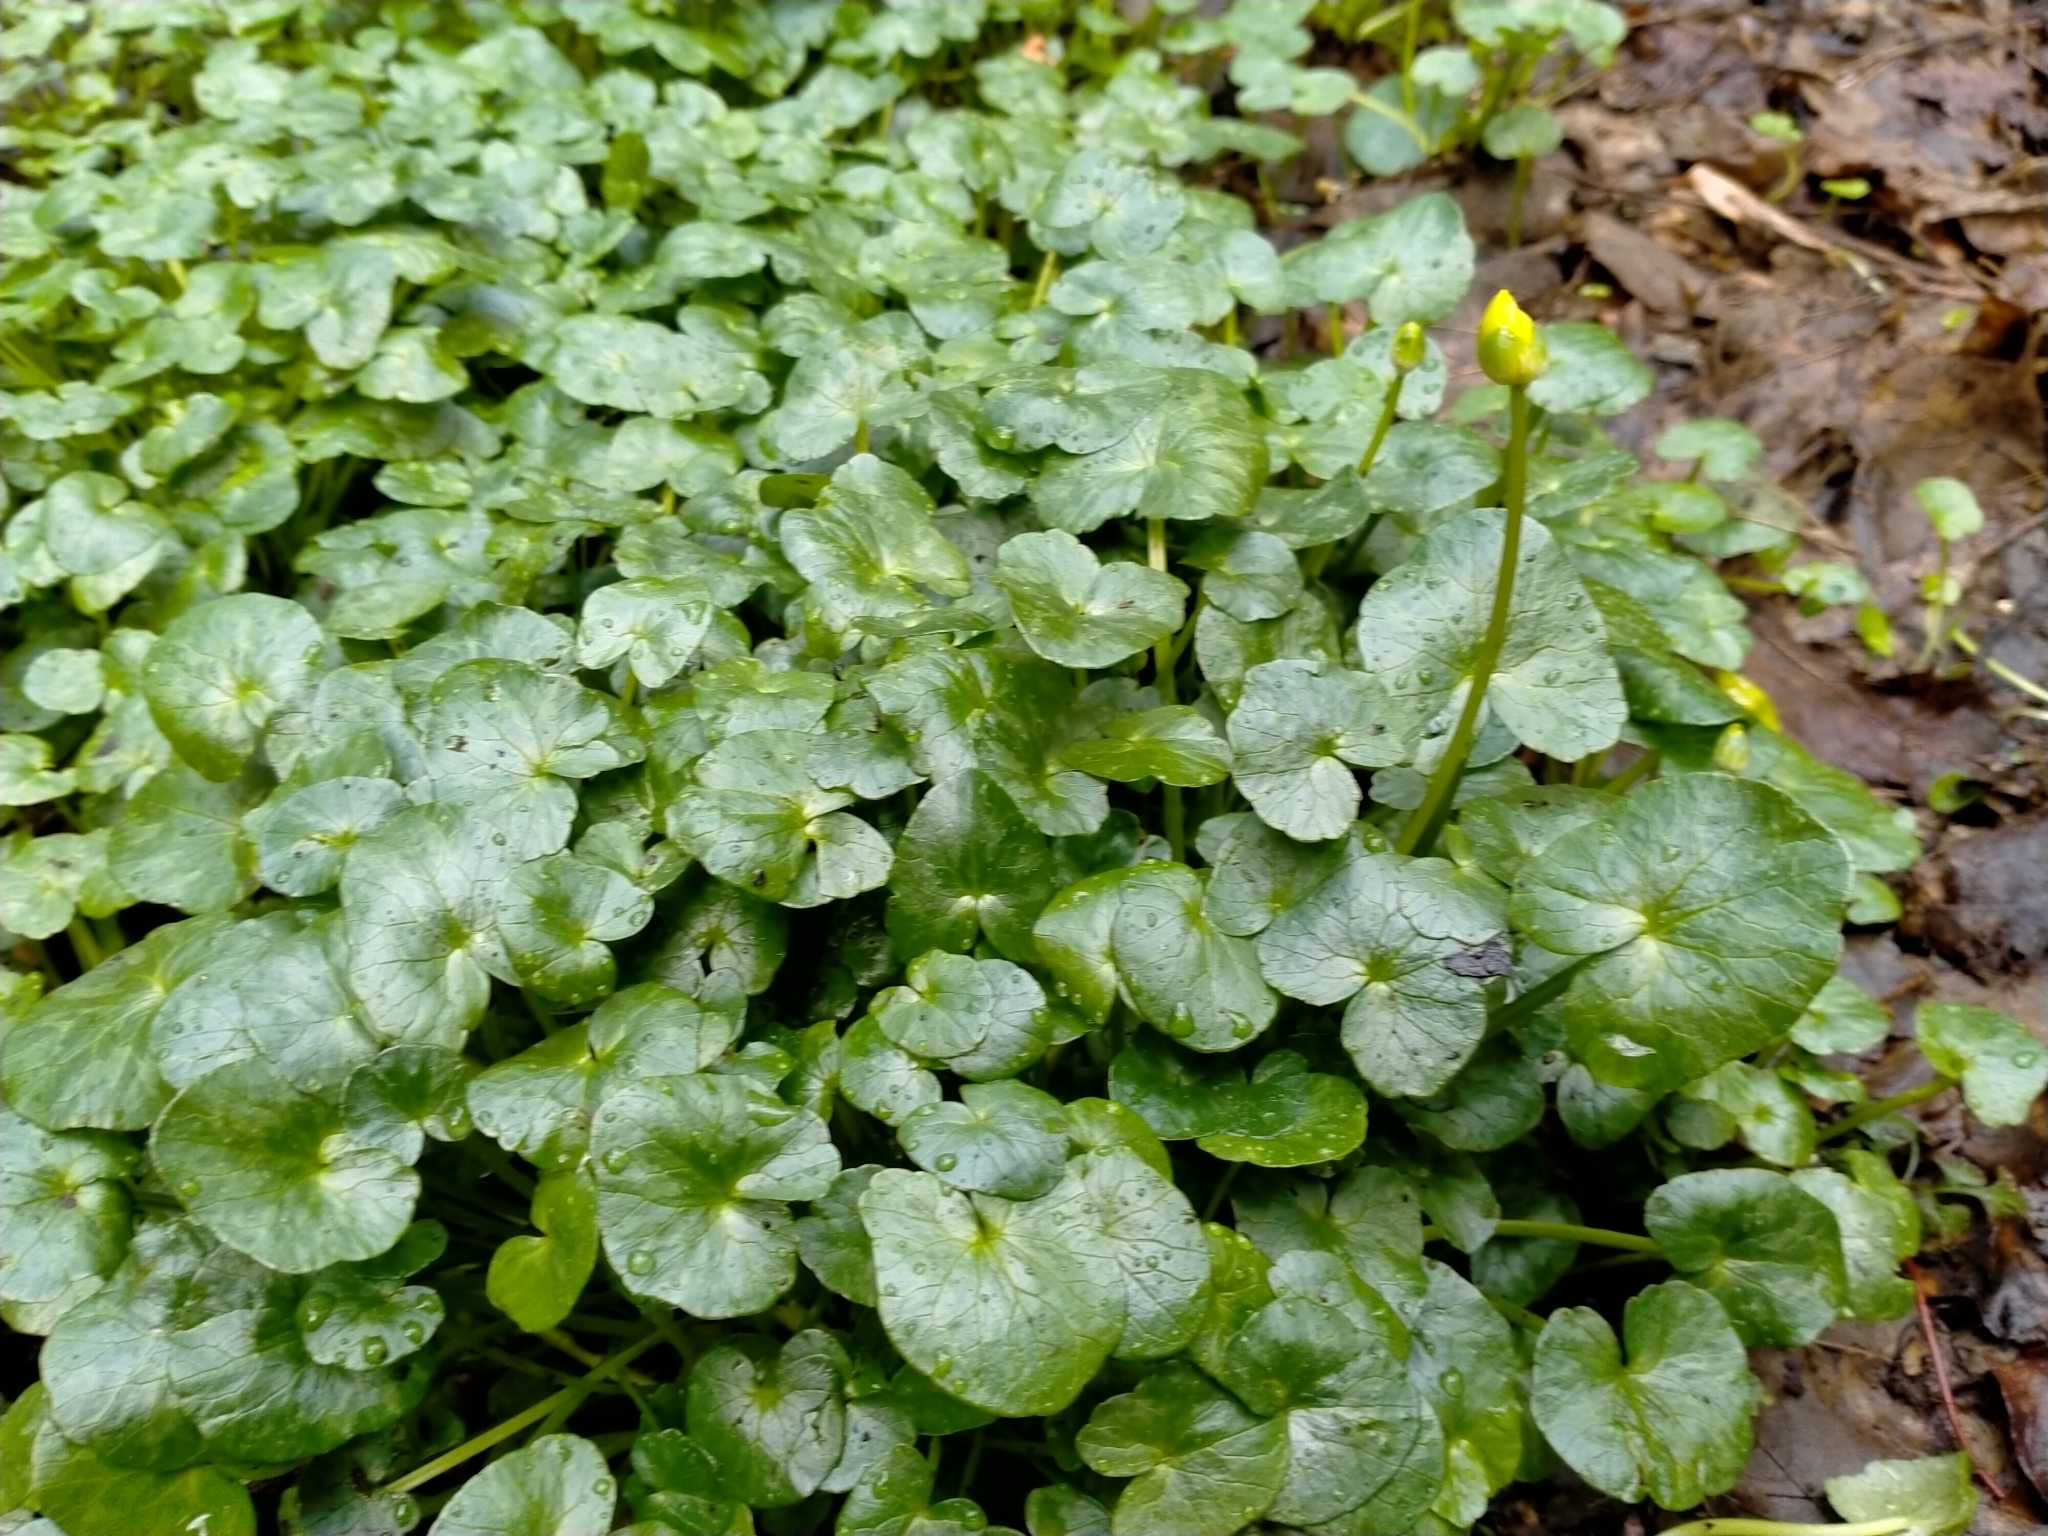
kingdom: Plantae
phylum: Tracheophyta
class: Magnoliopsida
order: Ranunculales
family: Ranunculaceae
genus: Ficaria
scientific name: Ficaria verna
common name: Lesser celandine
